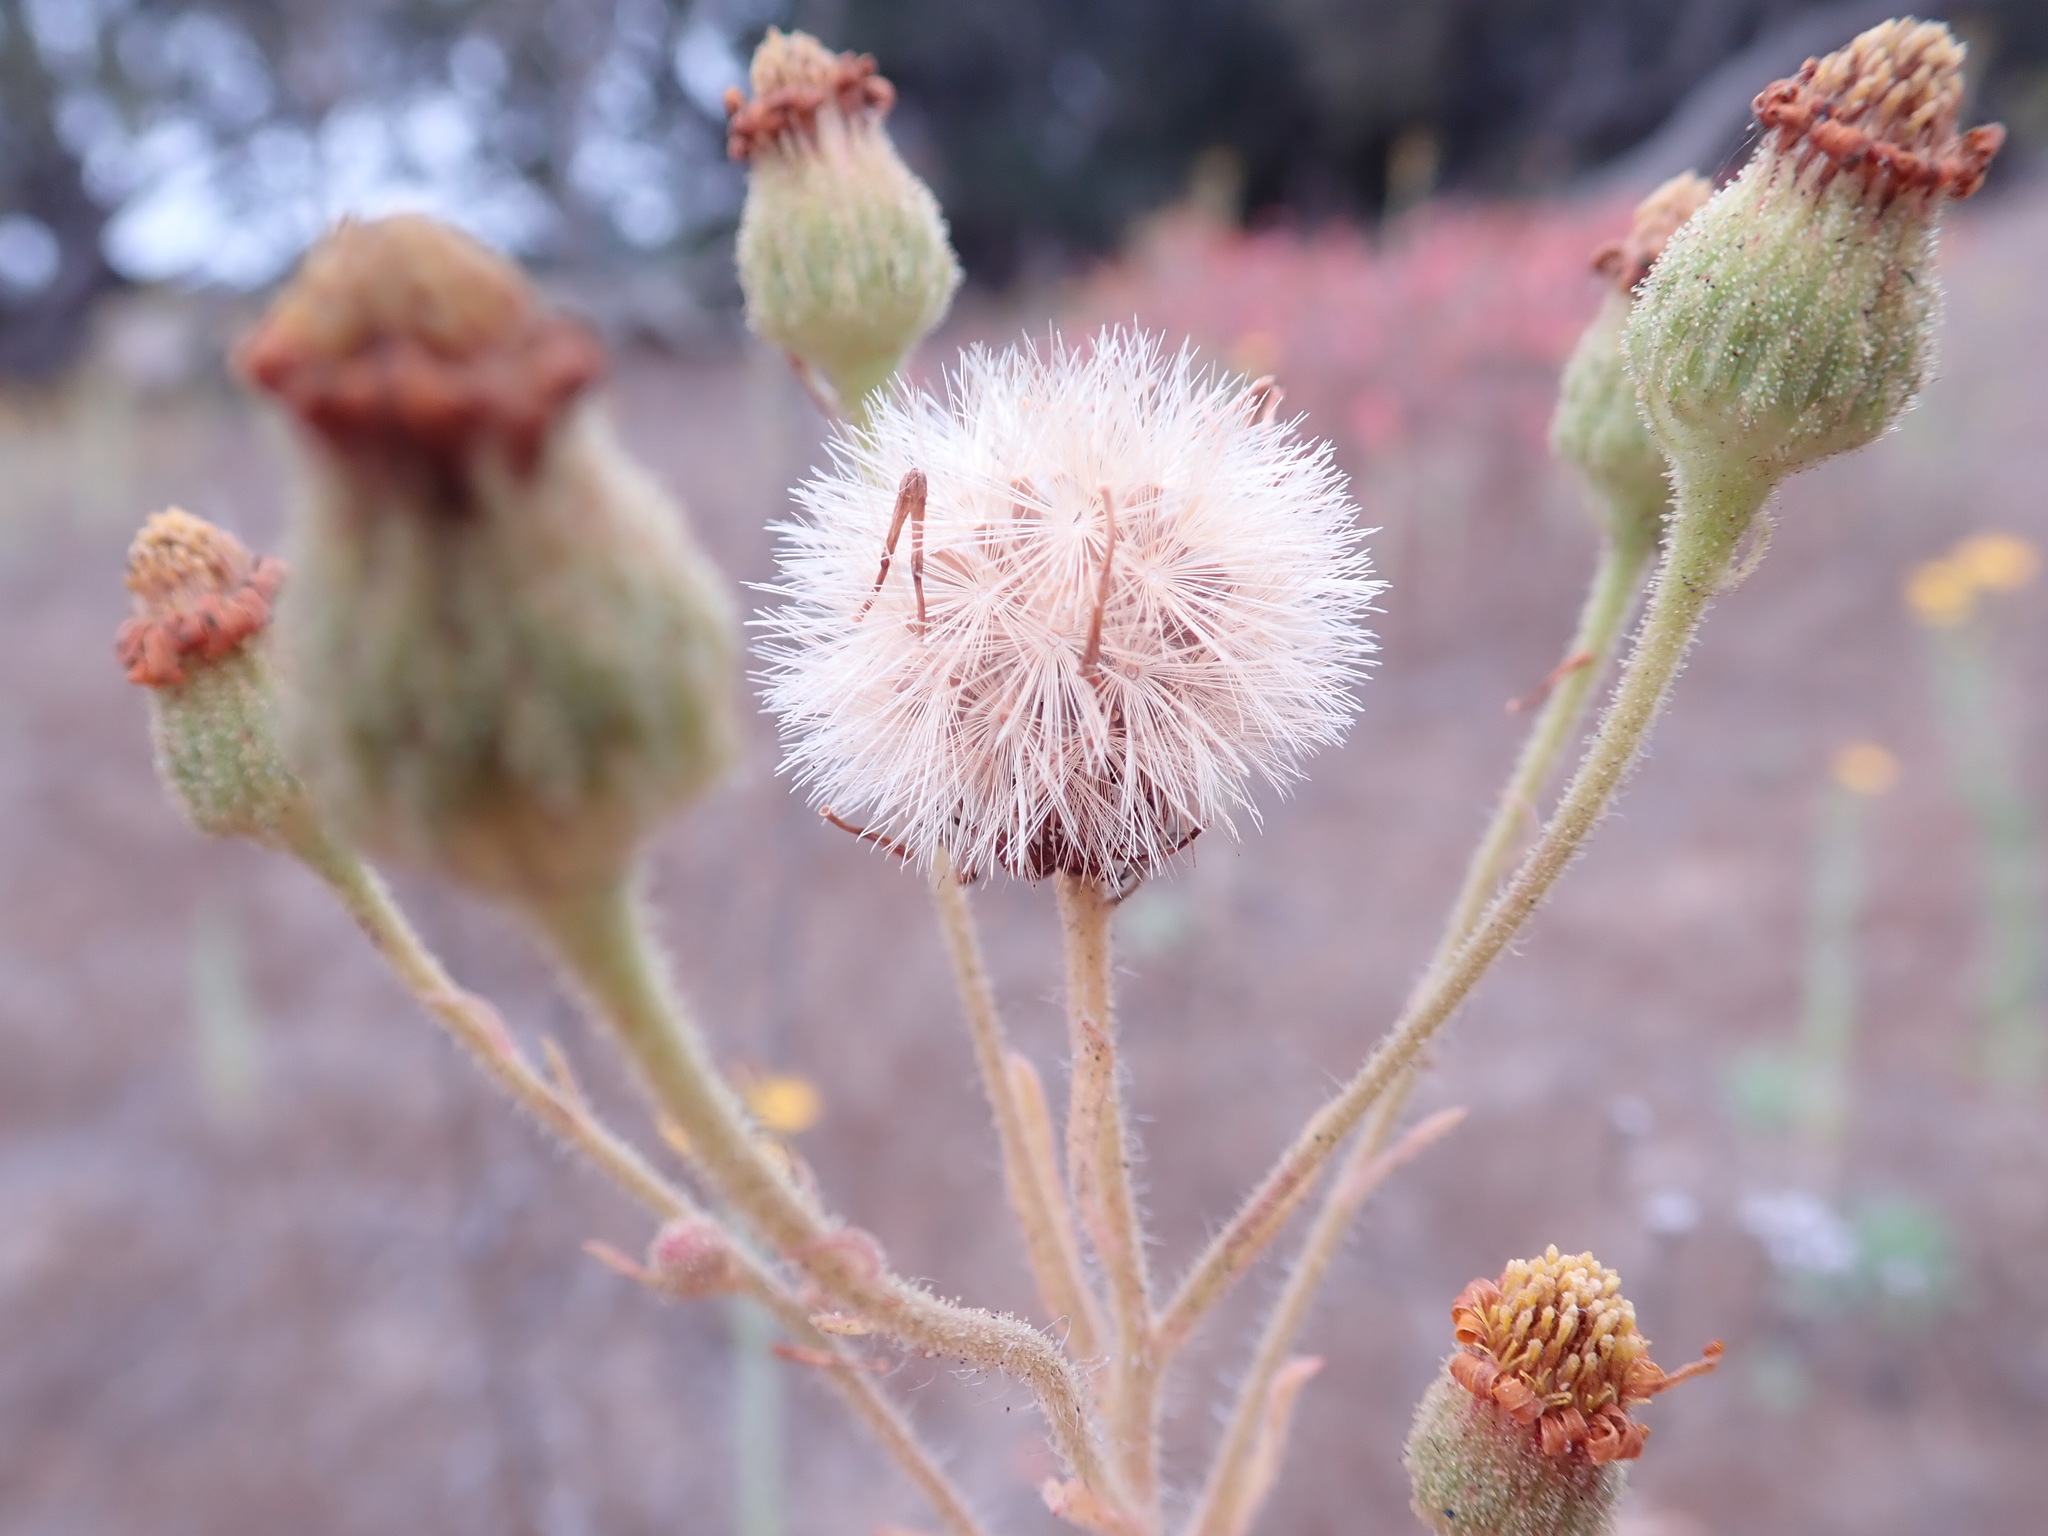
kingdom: Plantae
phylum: Tracheophyta
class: Magnoliopsida
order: Asterales
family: Asteraceae
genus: Heterotheca
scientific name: Heterotheca grandiflora
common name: Telegraphweed
